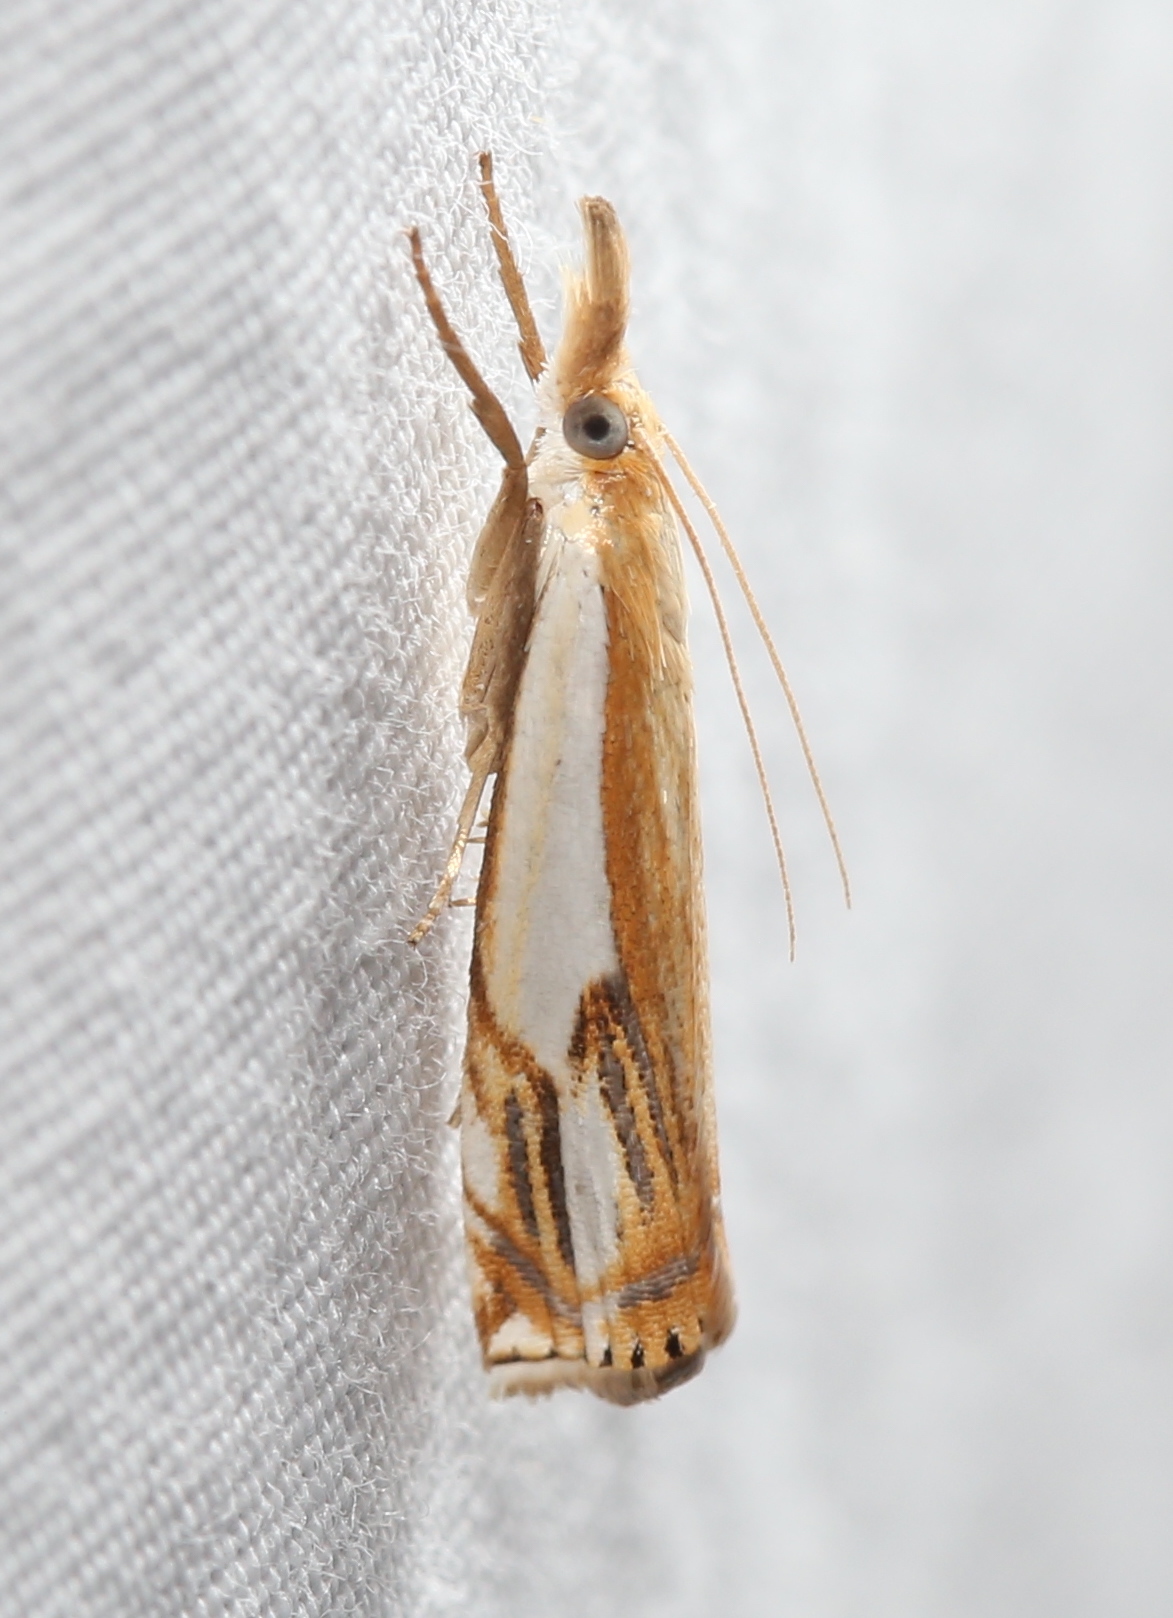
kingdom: Animalia
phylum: Arthropoda
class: Insecta
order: Lepidoptera
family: Crambidae
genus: Crambus
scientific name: Crambus agitatellus
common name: Double-banded grass-veneer
